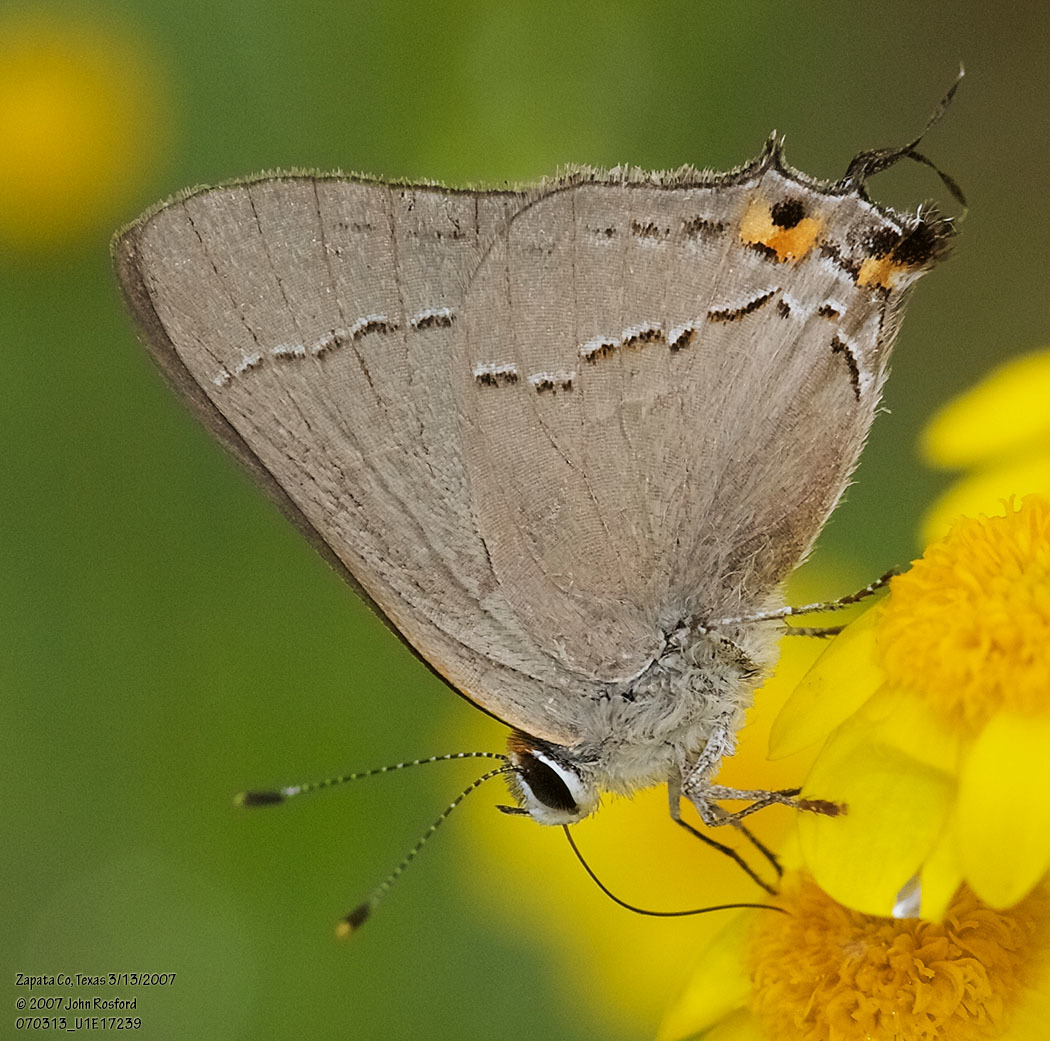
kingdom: Animalia
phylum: Arthropoda
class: Insecta
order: Lepidoptera
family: Lycaenidae
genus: Strymon
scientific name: Strymon melinus
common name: Gray hairstreak
